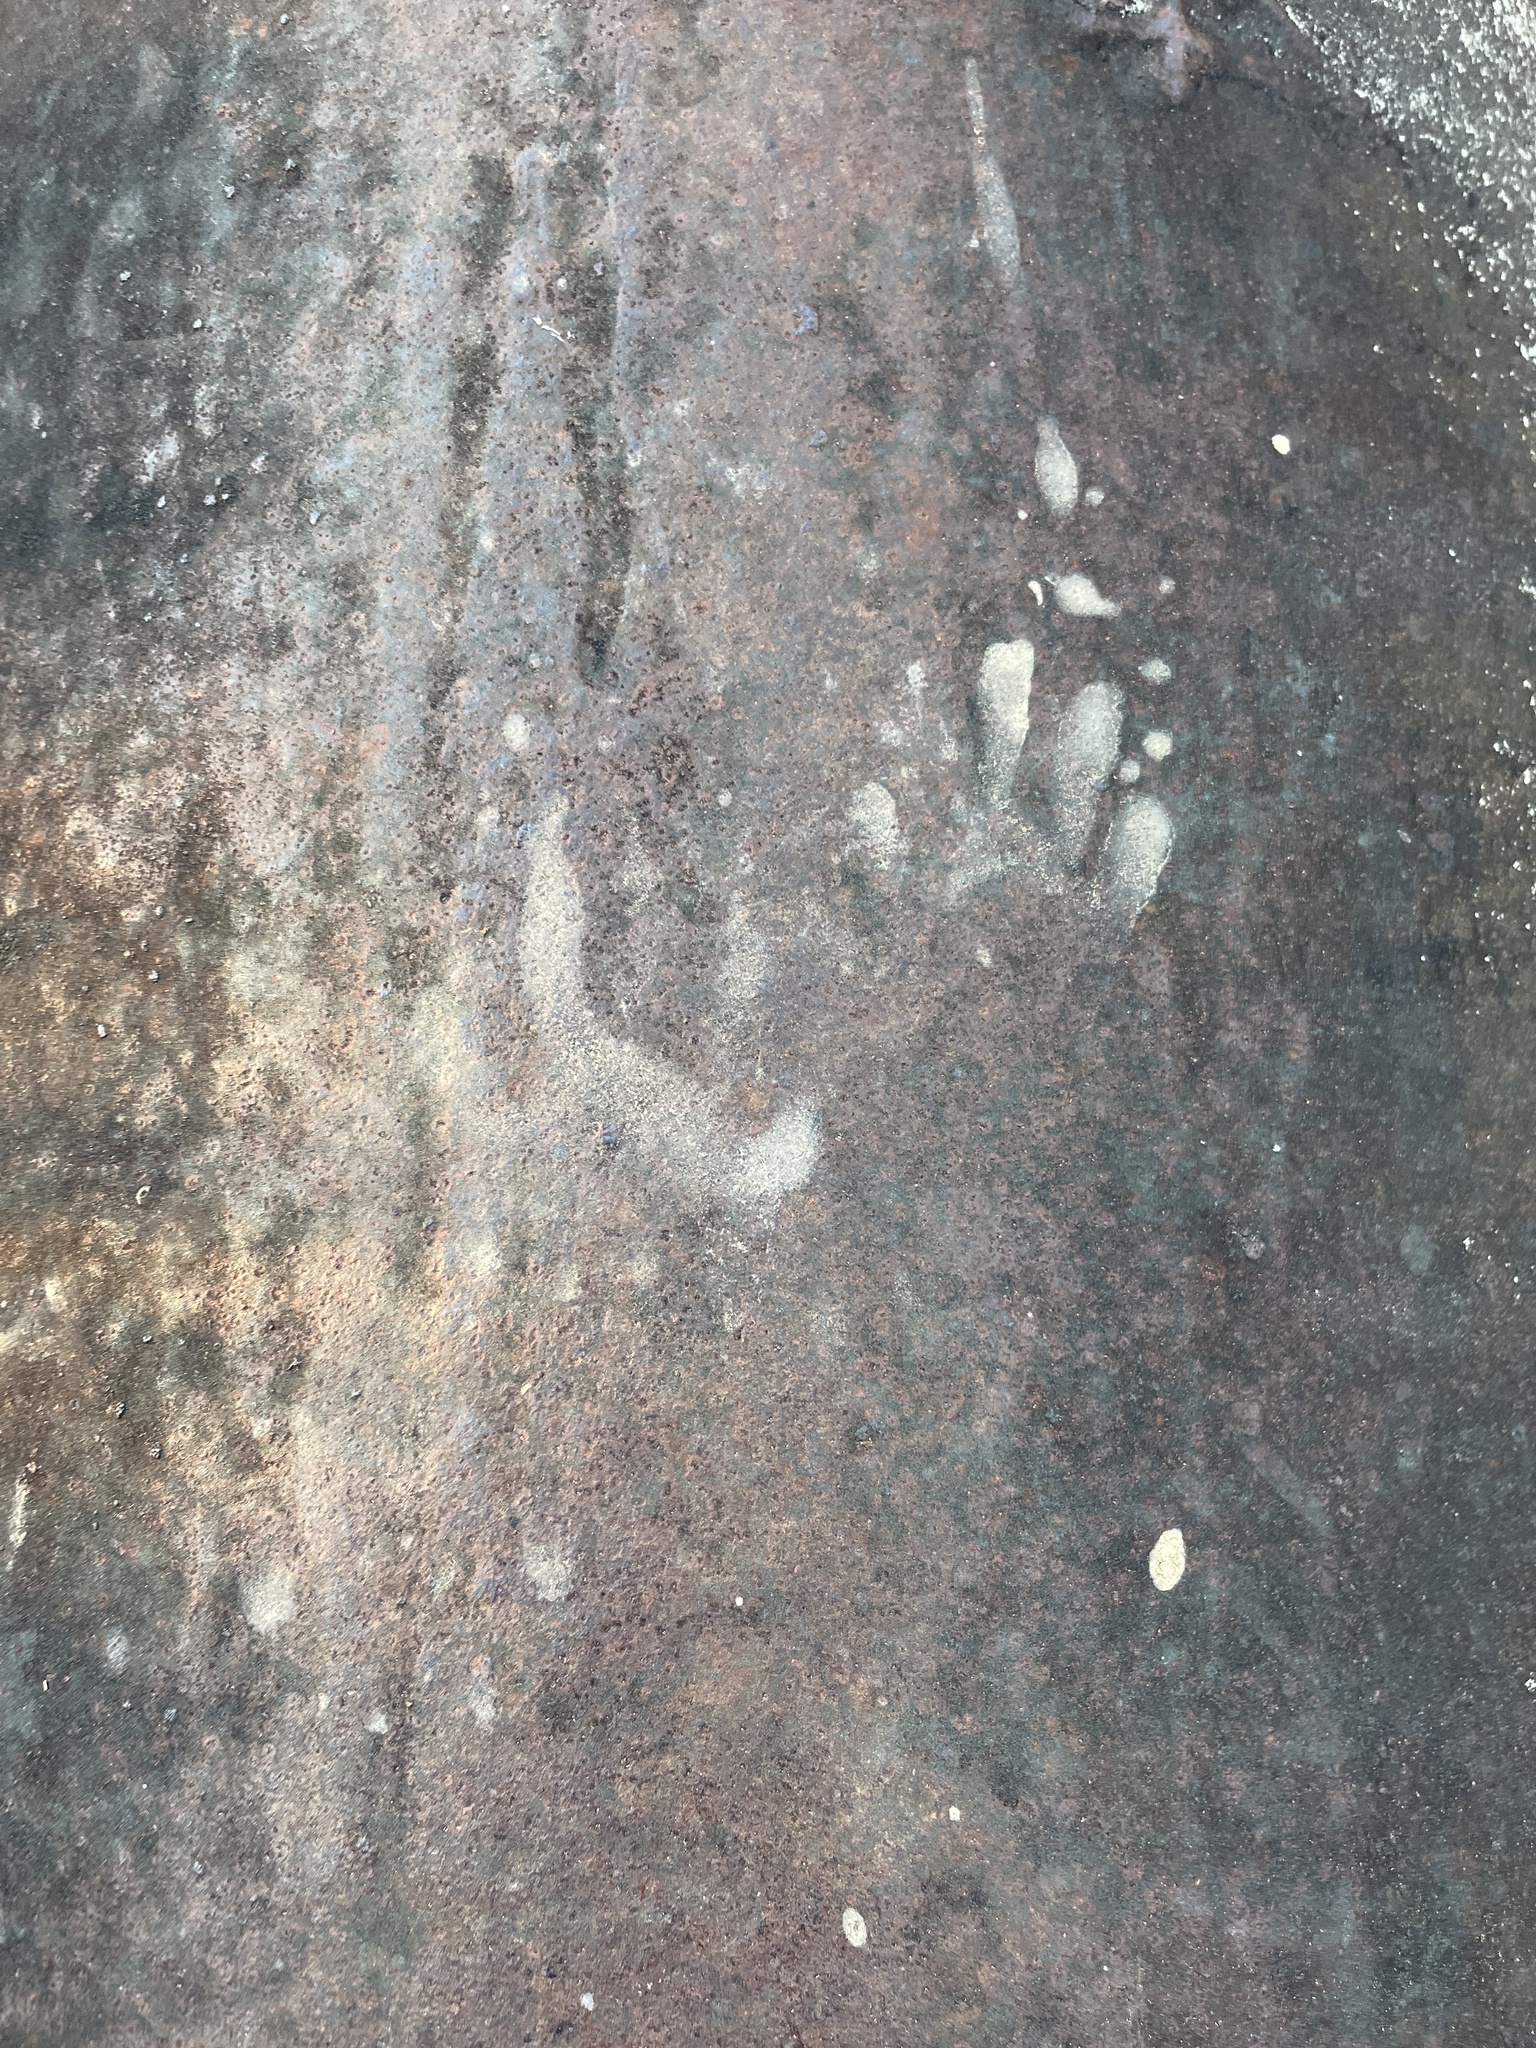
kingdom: Animalia
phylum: Chordata
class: Mammalia
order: Carnivora
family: Procyonidae
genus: Procyon
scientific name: Procyon lotor
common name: Raccoon
